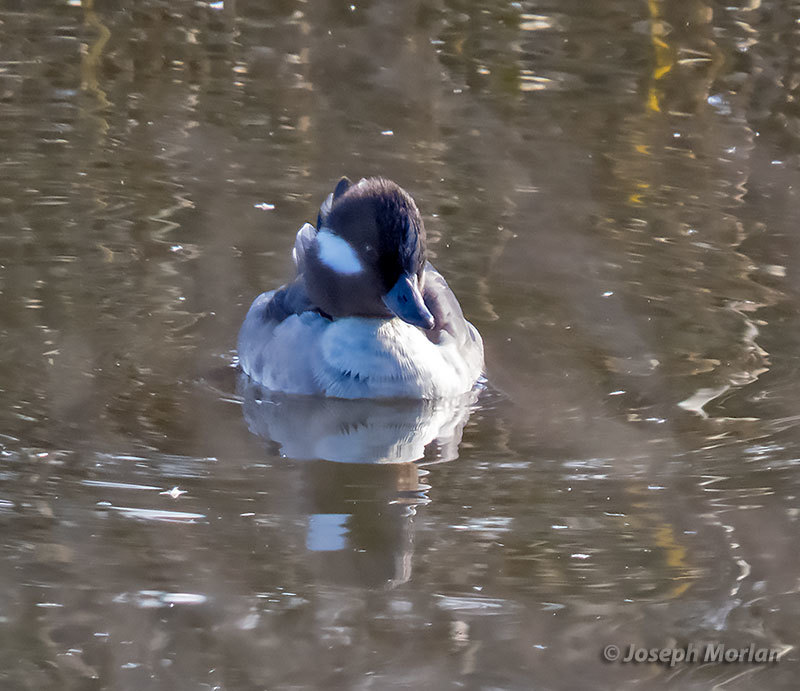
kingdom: Animalia
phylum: Chordata
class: Aves
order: Anseriformes
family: Anatidae
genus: Bucephala
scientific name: Bucephala albeola
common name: Bufflehead
